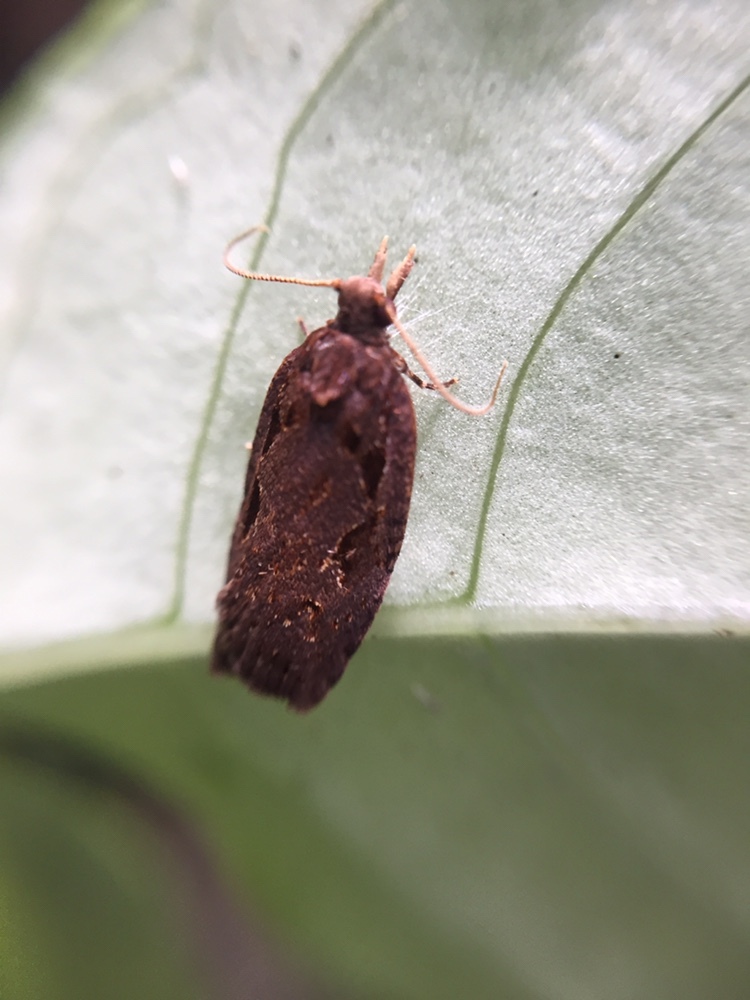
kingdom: Animalia
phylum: Arthropoda
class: Insecta
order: Lepidoptera
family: Tortricidae
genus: Ctenopseustis
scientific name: Ctenopseustis fraterna
